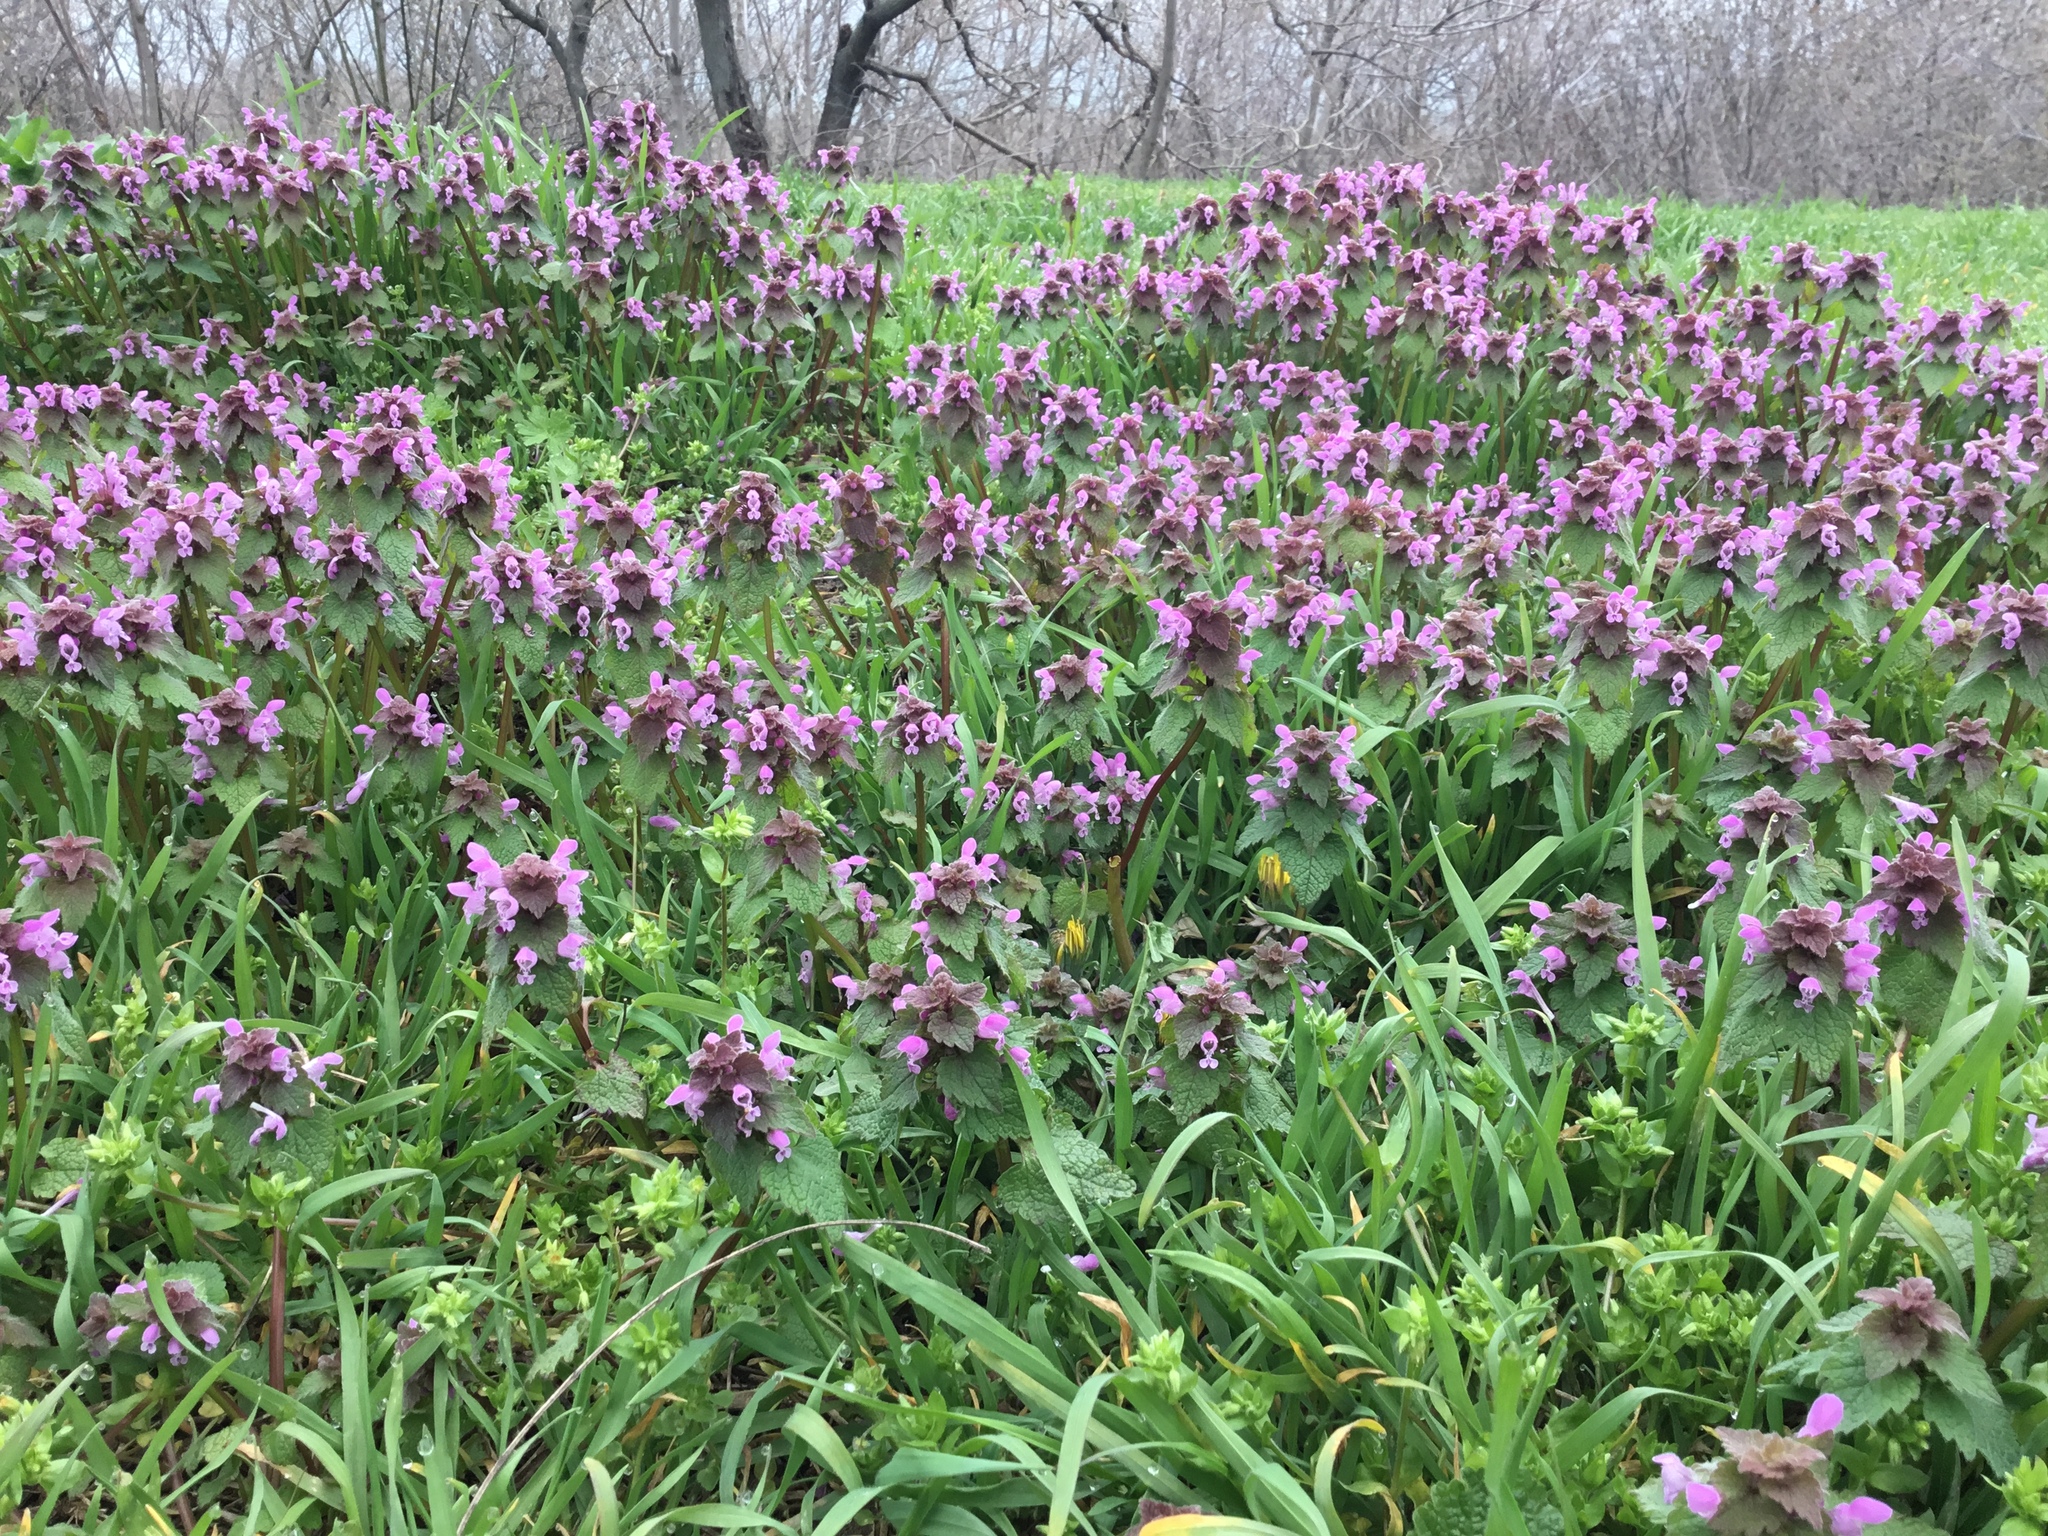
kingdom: Plantae
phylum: Tracheophyta
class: Magnoliopsida
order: Lamiales
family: Lamiaceae
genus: Lamium
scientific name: Lamium purpureum
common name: Red dead-nettle
